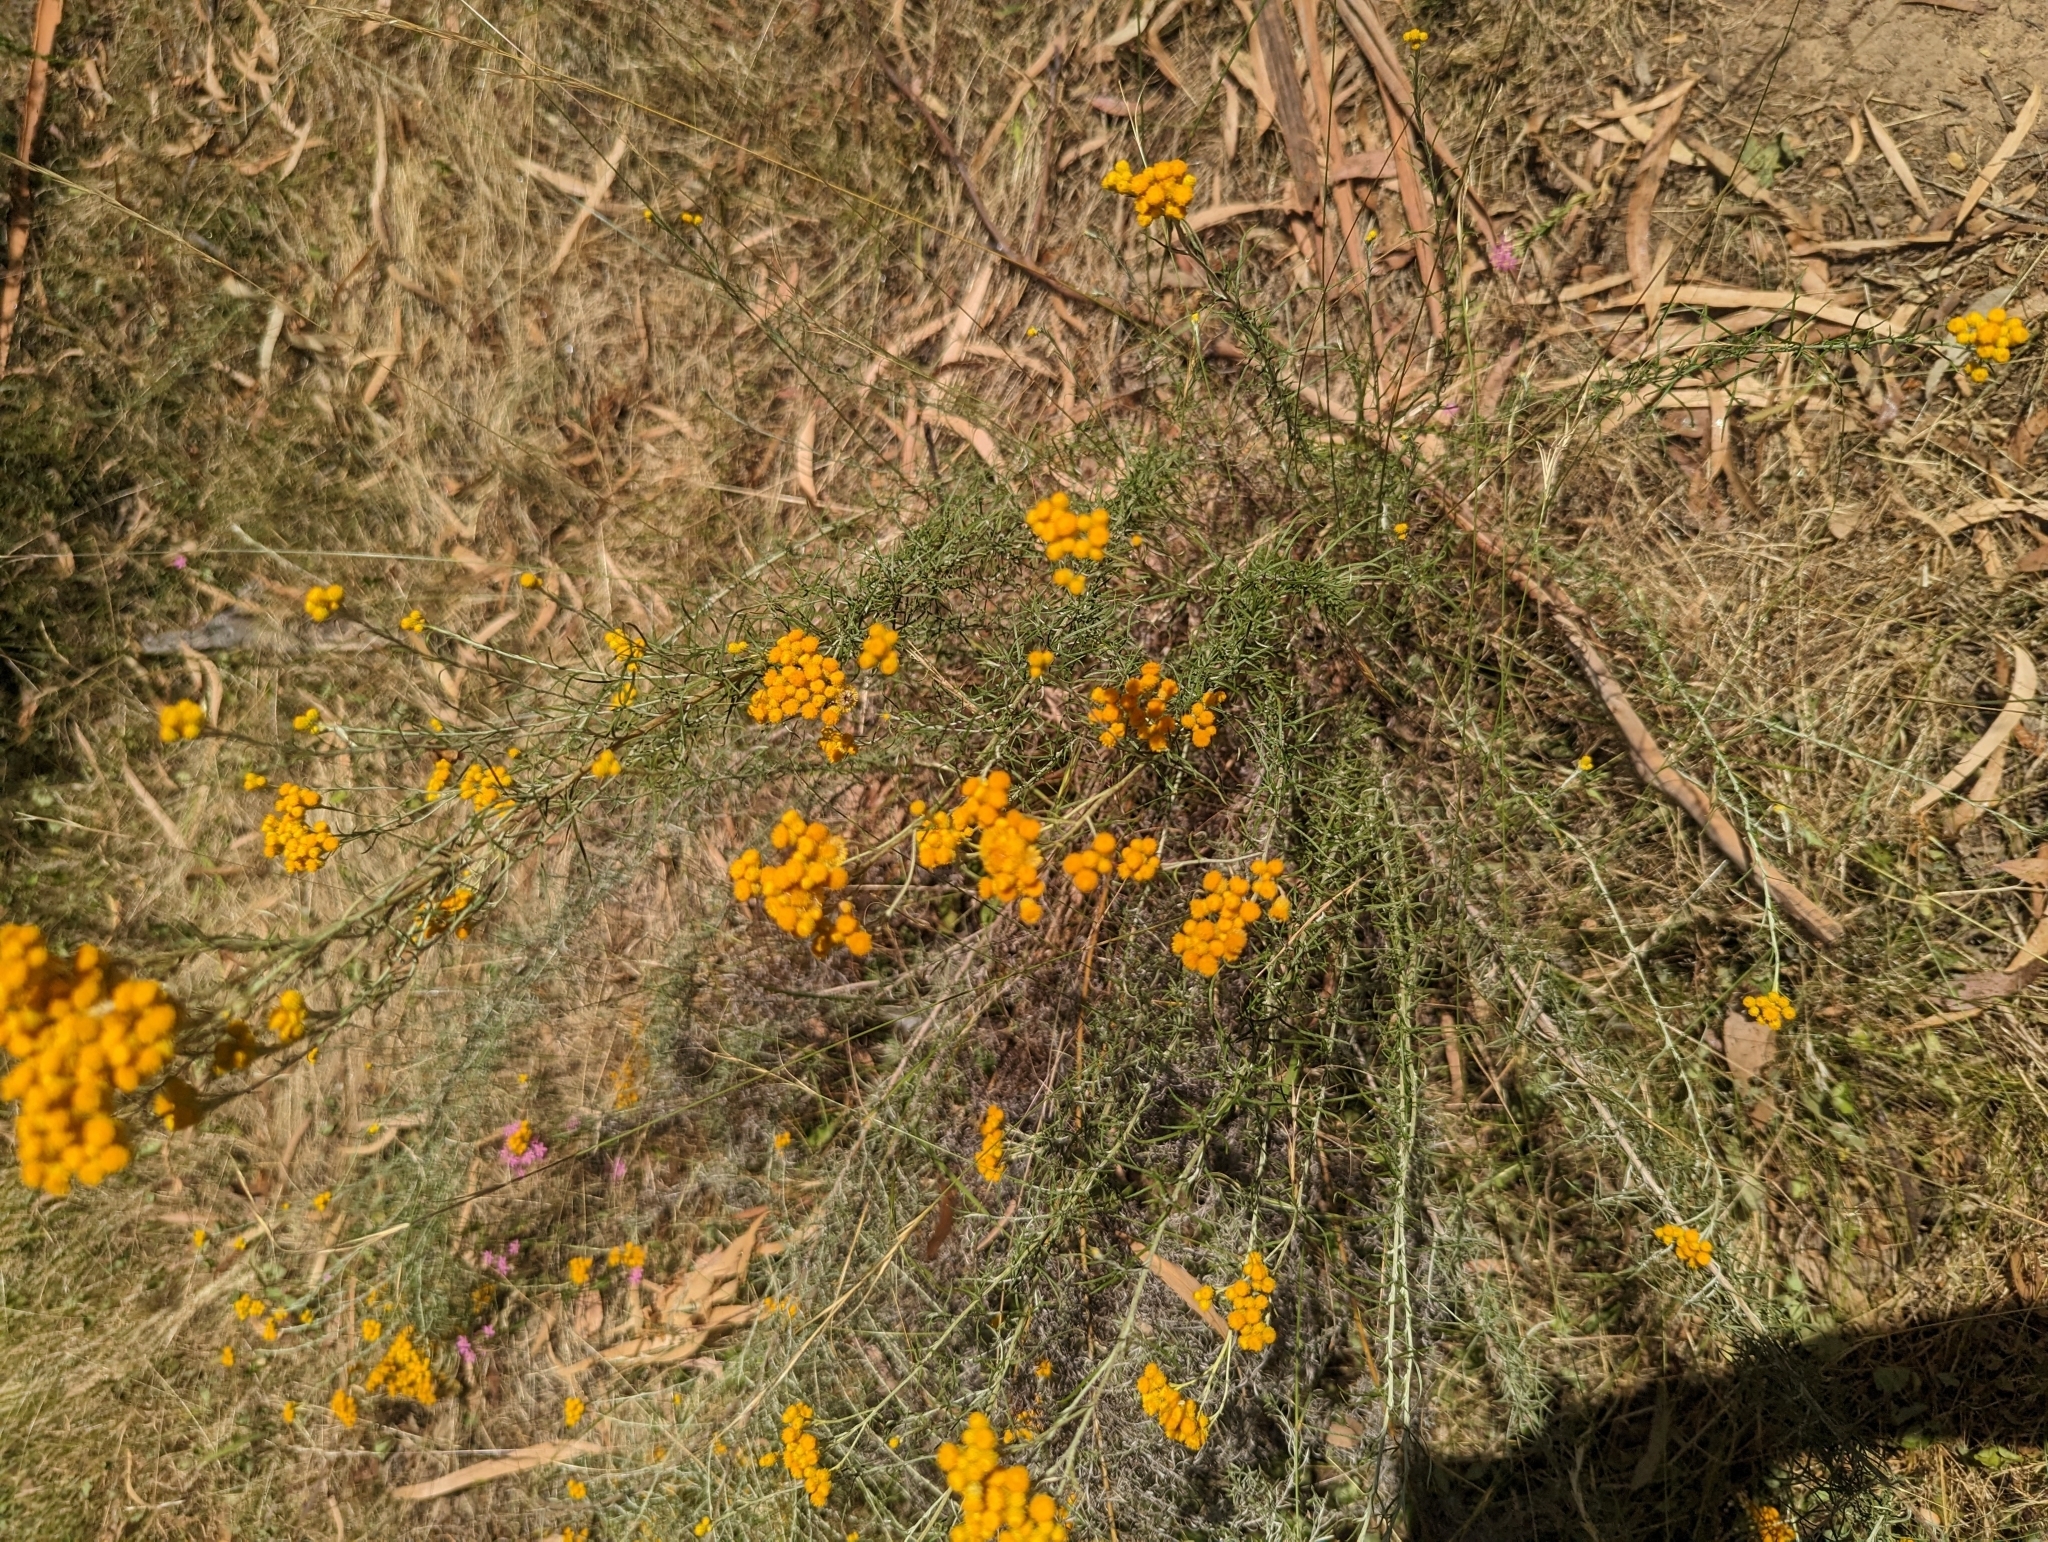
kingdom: Plantae
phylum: Tracheophyta
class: Magnoliopsida
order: Asterales
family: Asteraceae
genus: Chrysocephalum
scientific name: Chrysocephalum semipapposum
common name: Clustered everlasting
